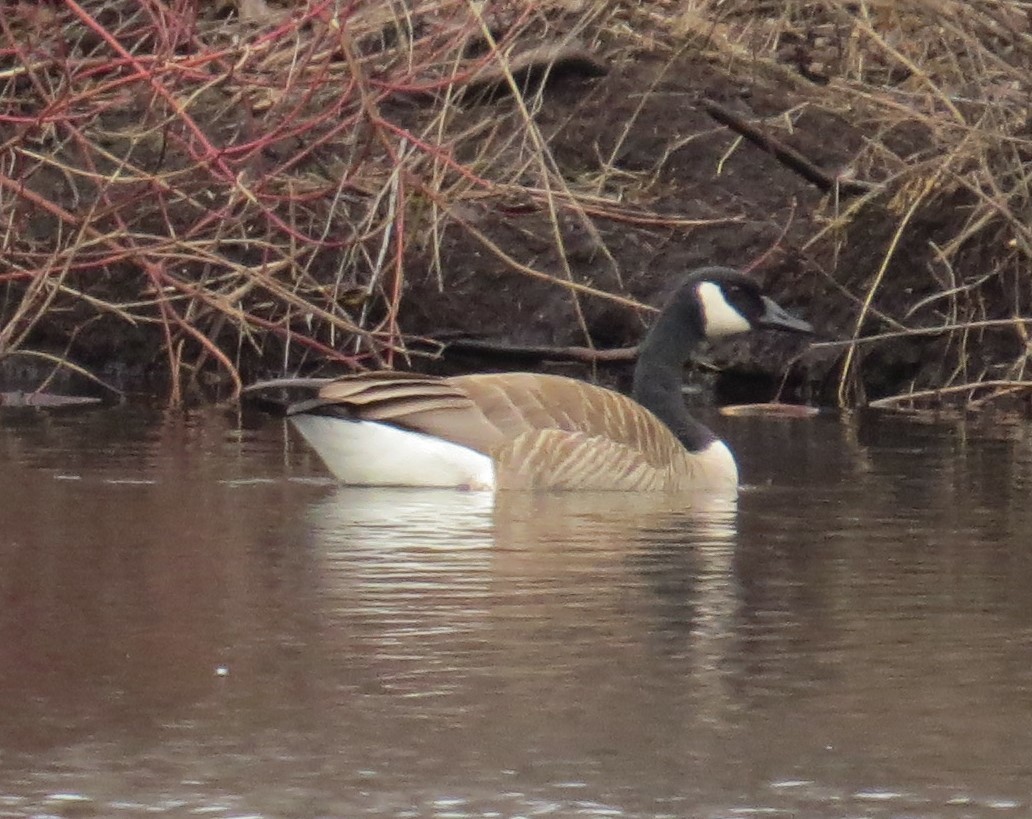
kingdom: Animalia
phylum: Chordata
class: Aves
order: Anseriformes
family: Anatidae
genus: Branta
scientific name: Branta canadensis
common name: Canada goose
